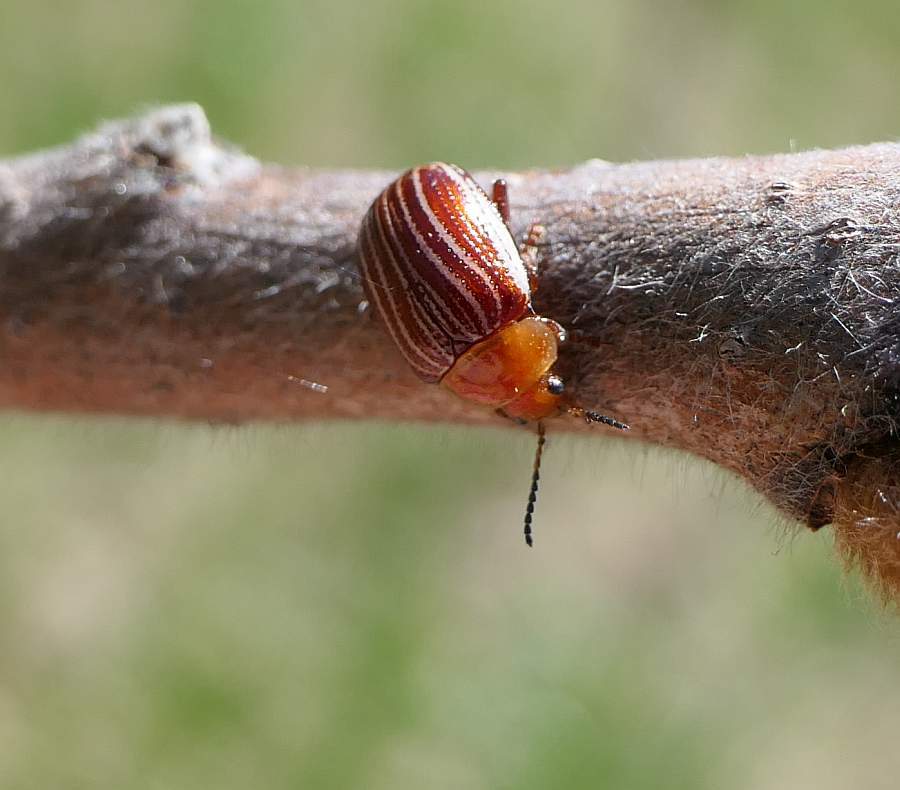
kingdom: Animalia
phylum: Arthropoda
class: Insecta
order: Coleoptera
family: Chrysomelidae
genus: Blepharida
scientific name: Blepharida rhois
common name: Sumac flea beetle
